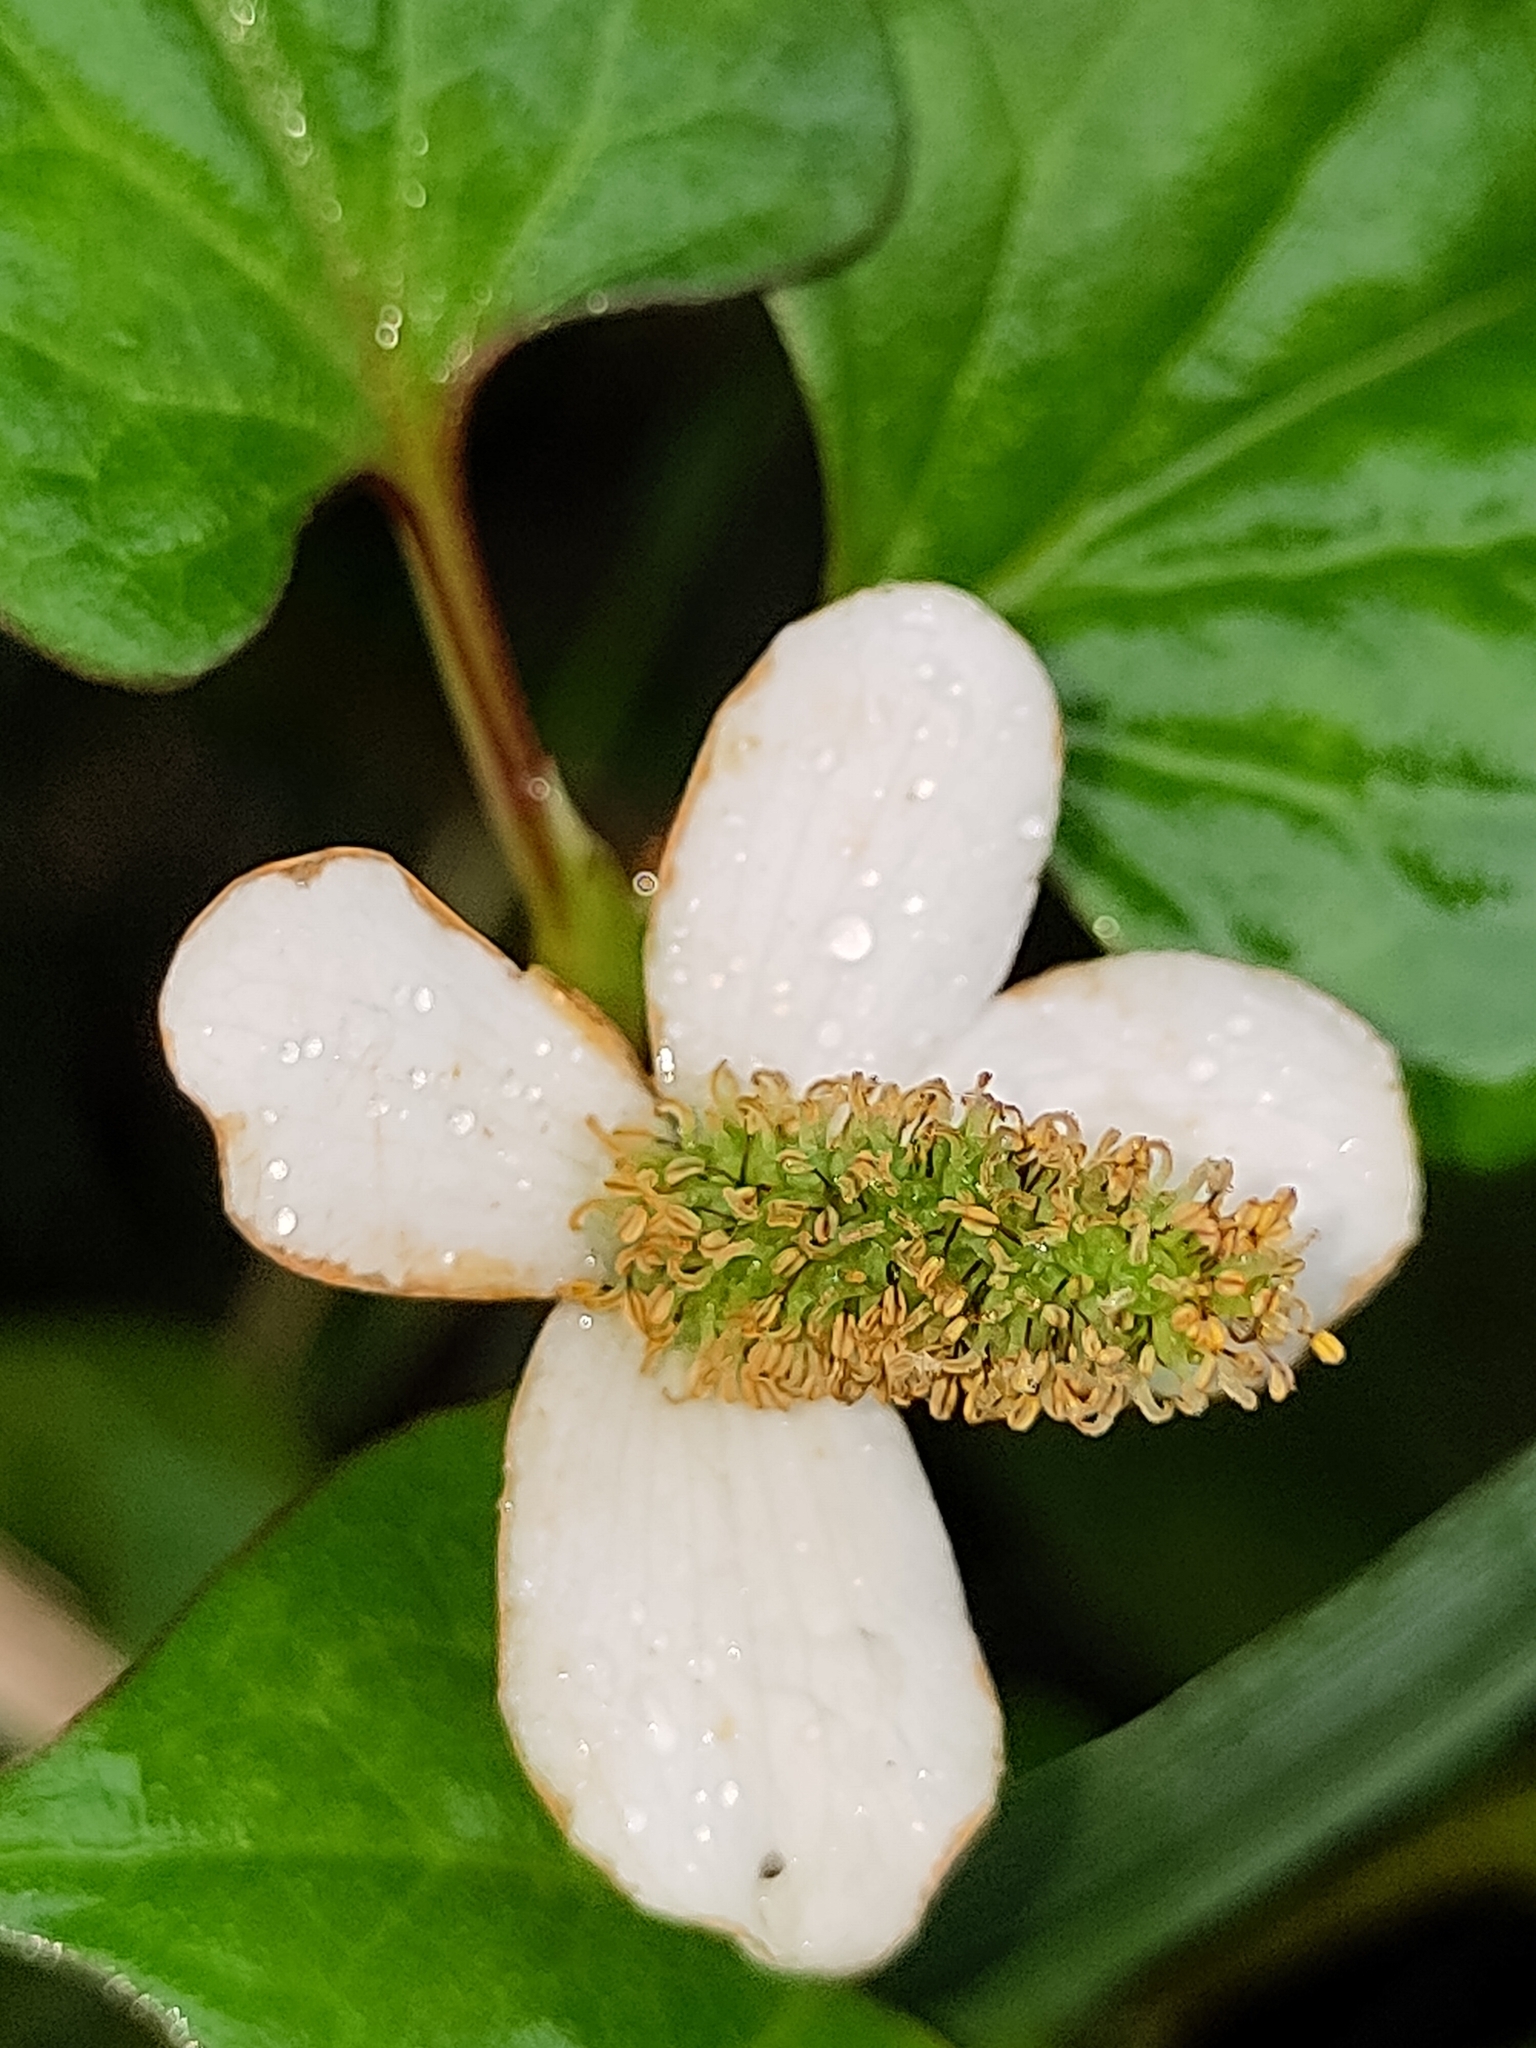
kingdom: Plantae
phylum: Tracheophyta
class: Magnoliopsida
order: Piperales
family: Saururaceae
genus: Houttuynia
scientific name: Houttuynia cordata
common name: Chameleon
